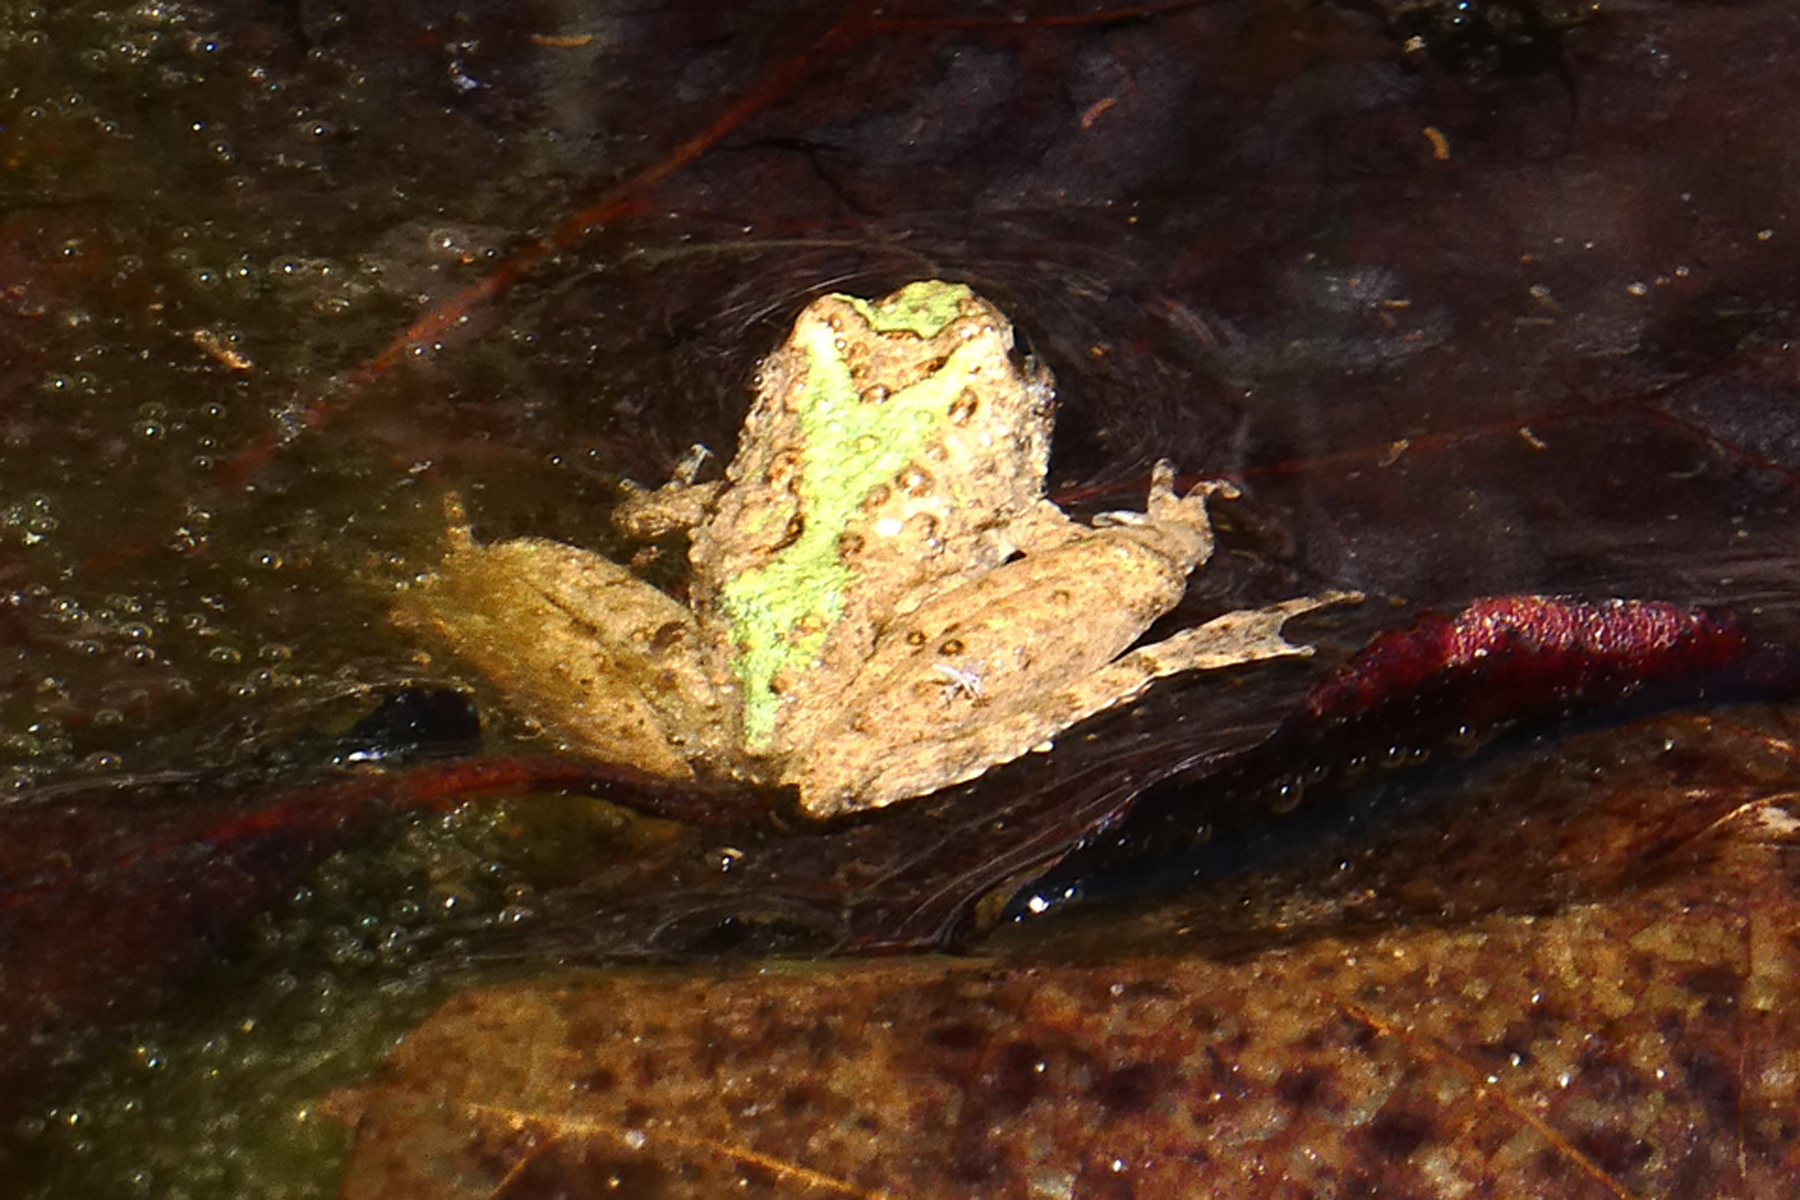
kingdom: Animalia
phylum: Chordata
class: Amphibia
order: Anura
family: Hylidae
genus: Acris
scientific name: Acris blanchardi
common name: Blanchard's cricket frog
